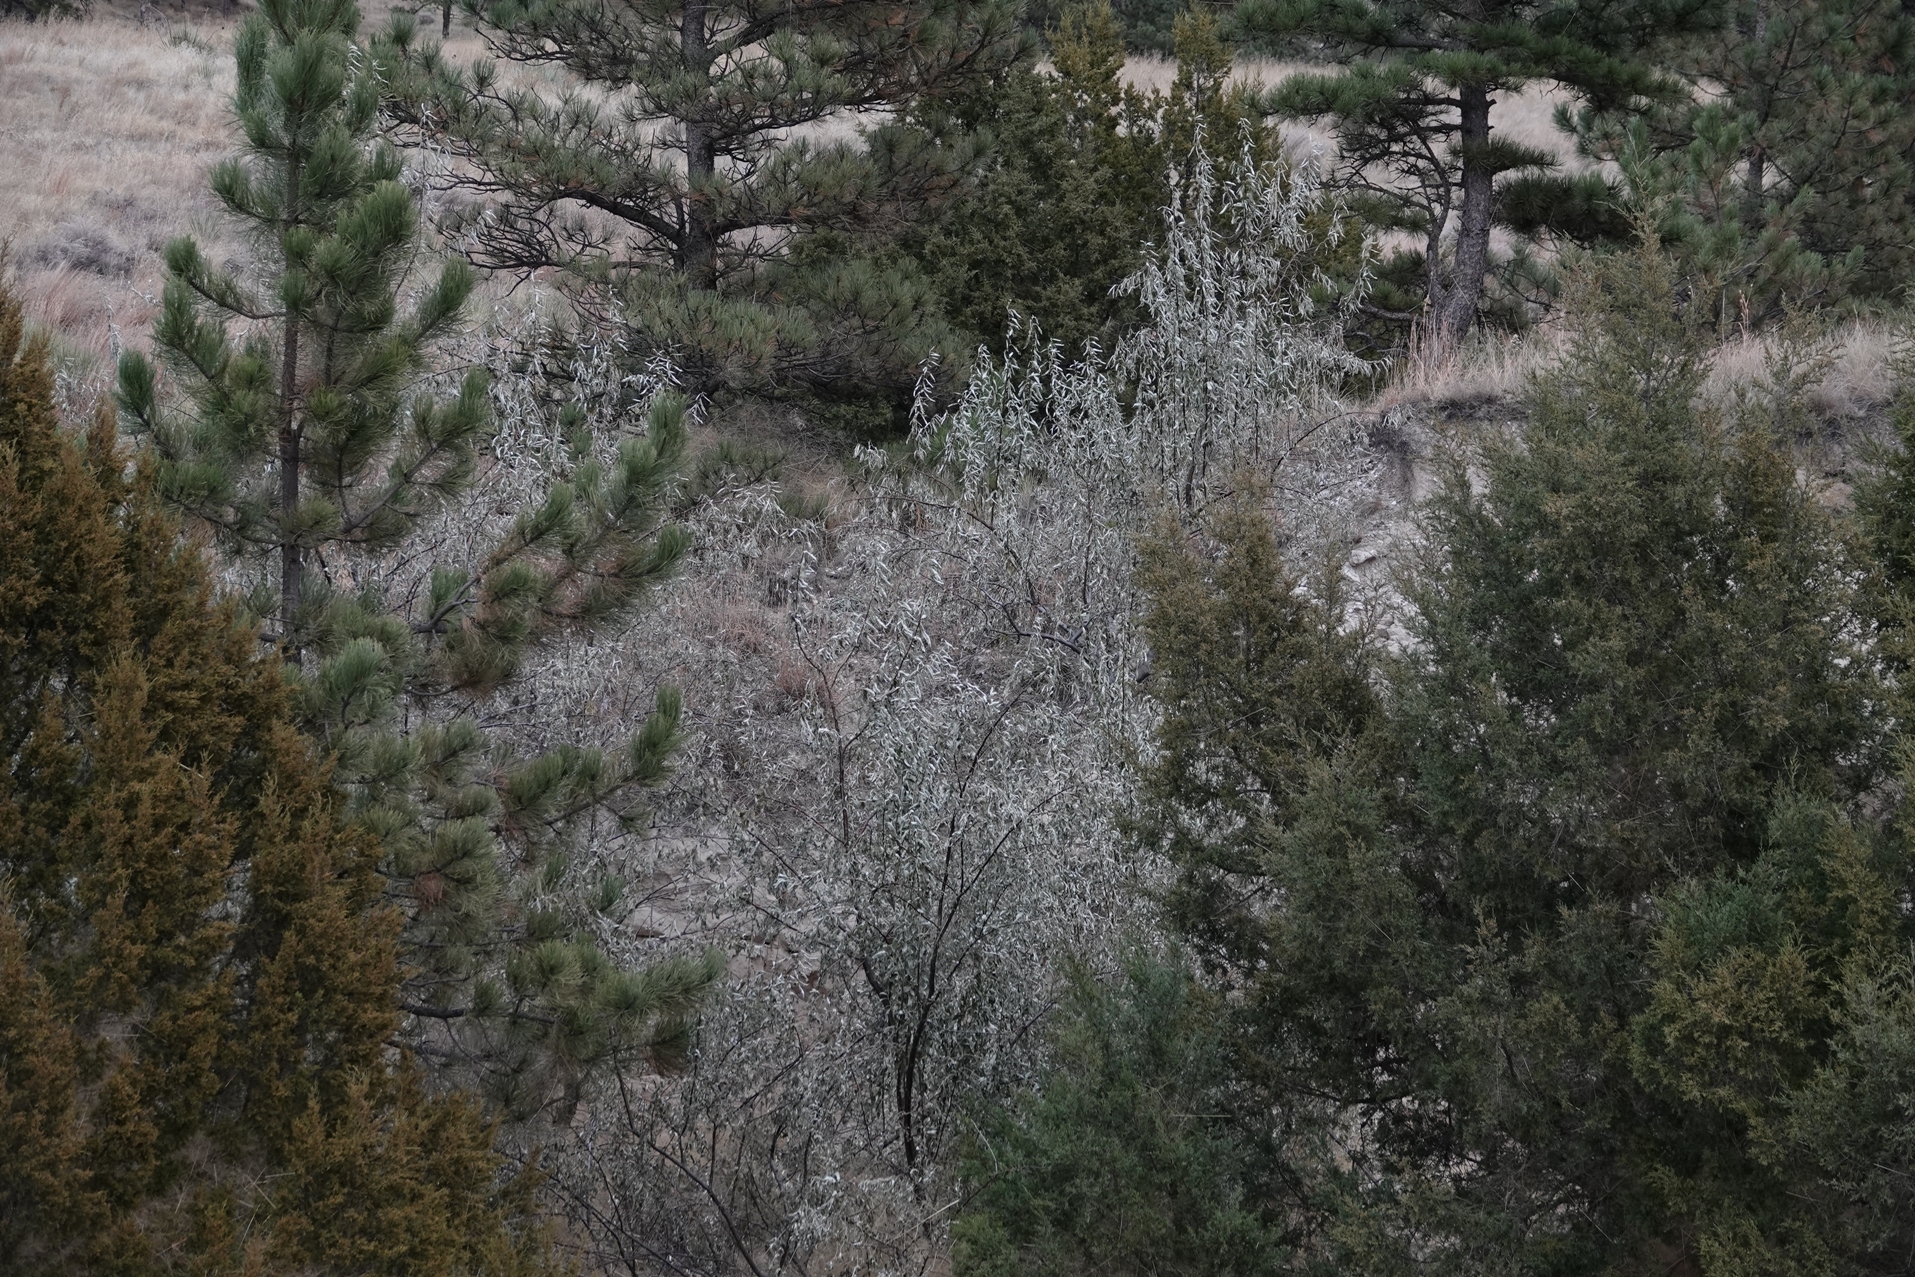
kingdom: Plantae
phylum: Tracheophyta
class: Magnoliopsida
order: Rosales
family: Elaeagnaceae
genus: Elaeagnus
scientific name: Elaeagnus angustifolia
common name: Russian olive
